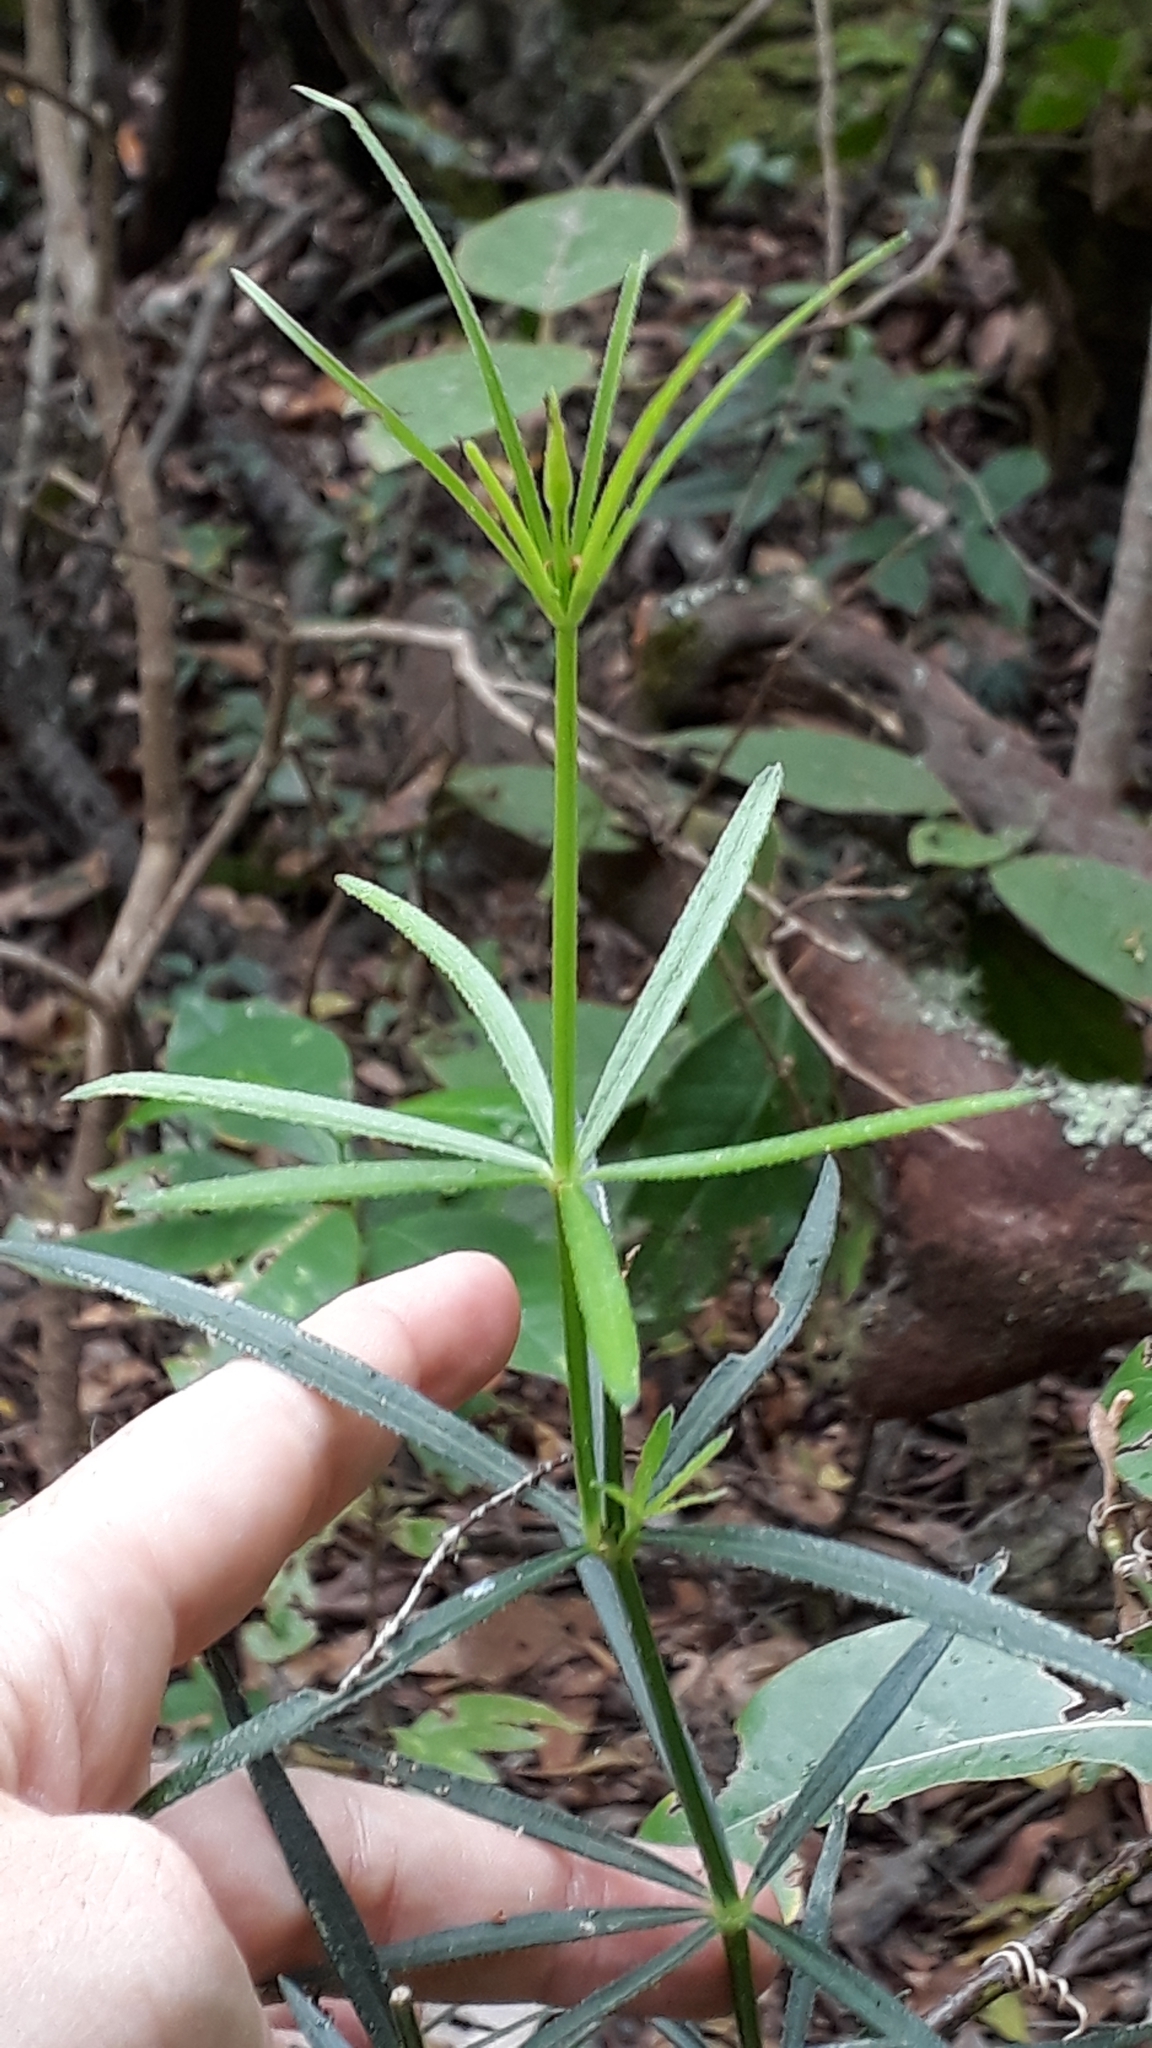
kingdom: Plantae
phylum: Tracheophyta
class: Magnoliopsida
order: Gentianales
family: Rubiaceae
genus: Rubia
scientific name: Rubia occidens
